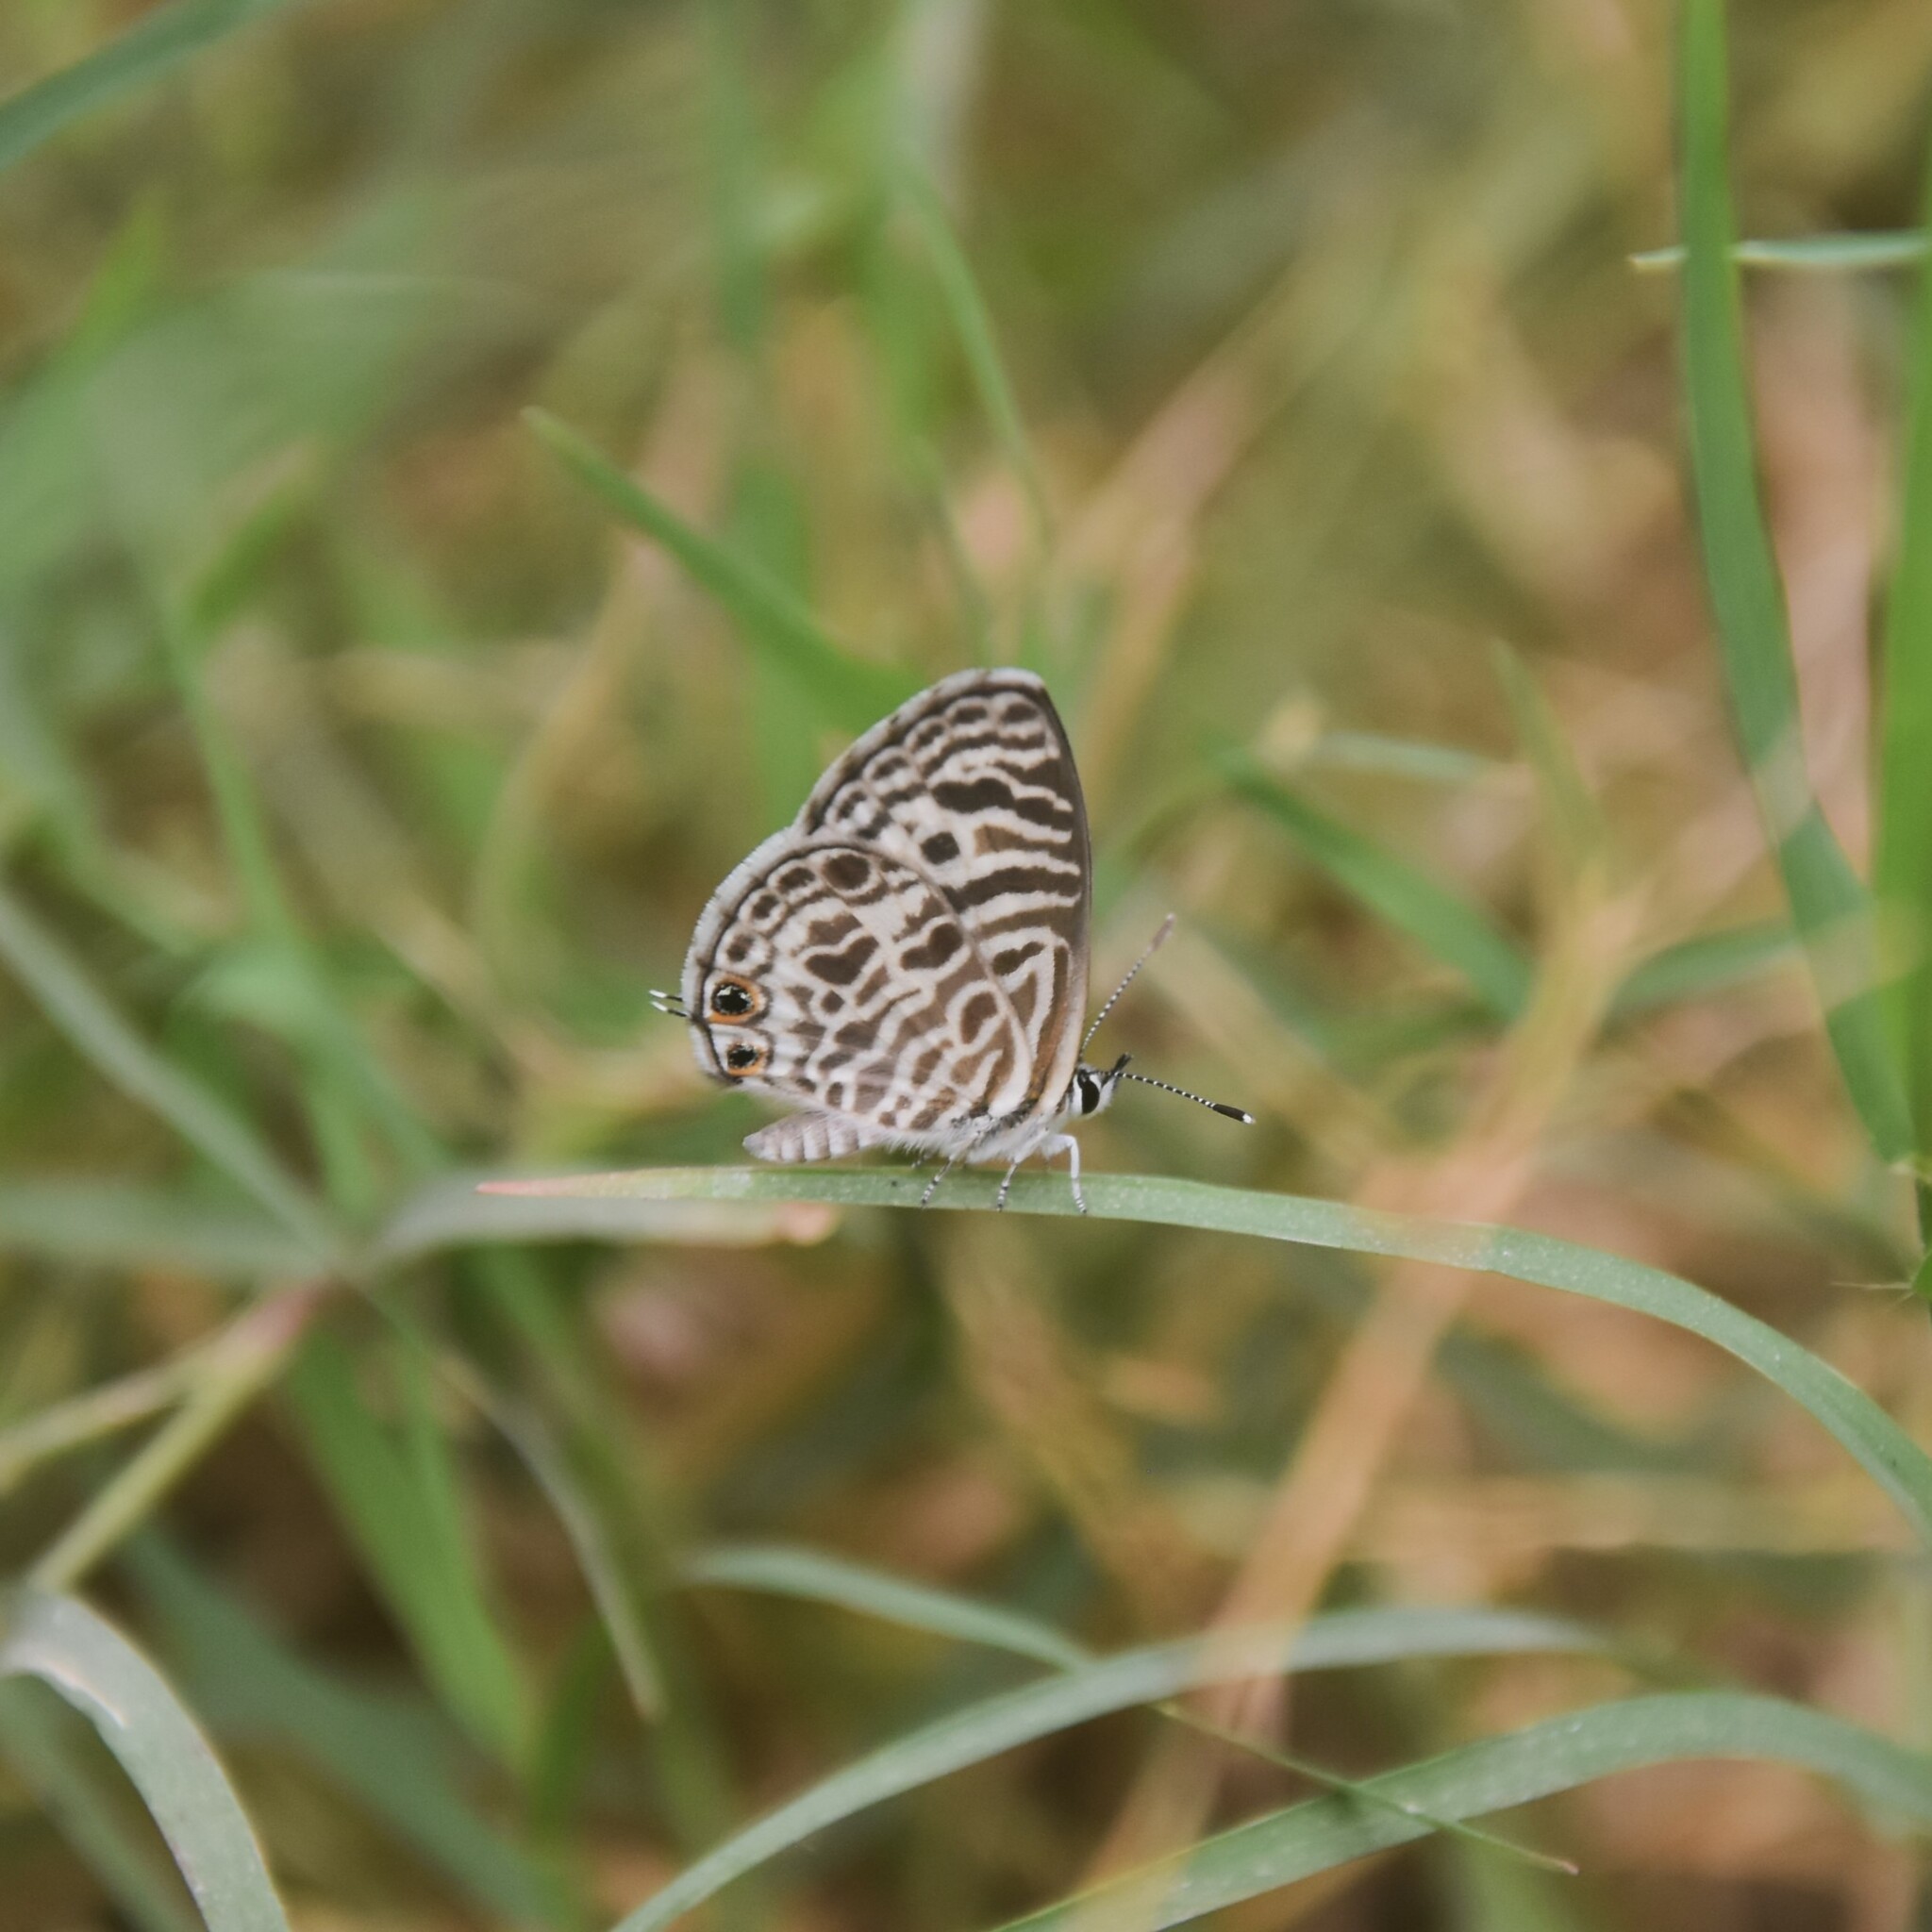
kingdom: Animalia
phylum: Arthropoda
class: Insecta
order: Lepidoptera
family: Lycaenidae
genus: Leptotes
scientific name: Leptotes plinius
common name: Zebra blue
